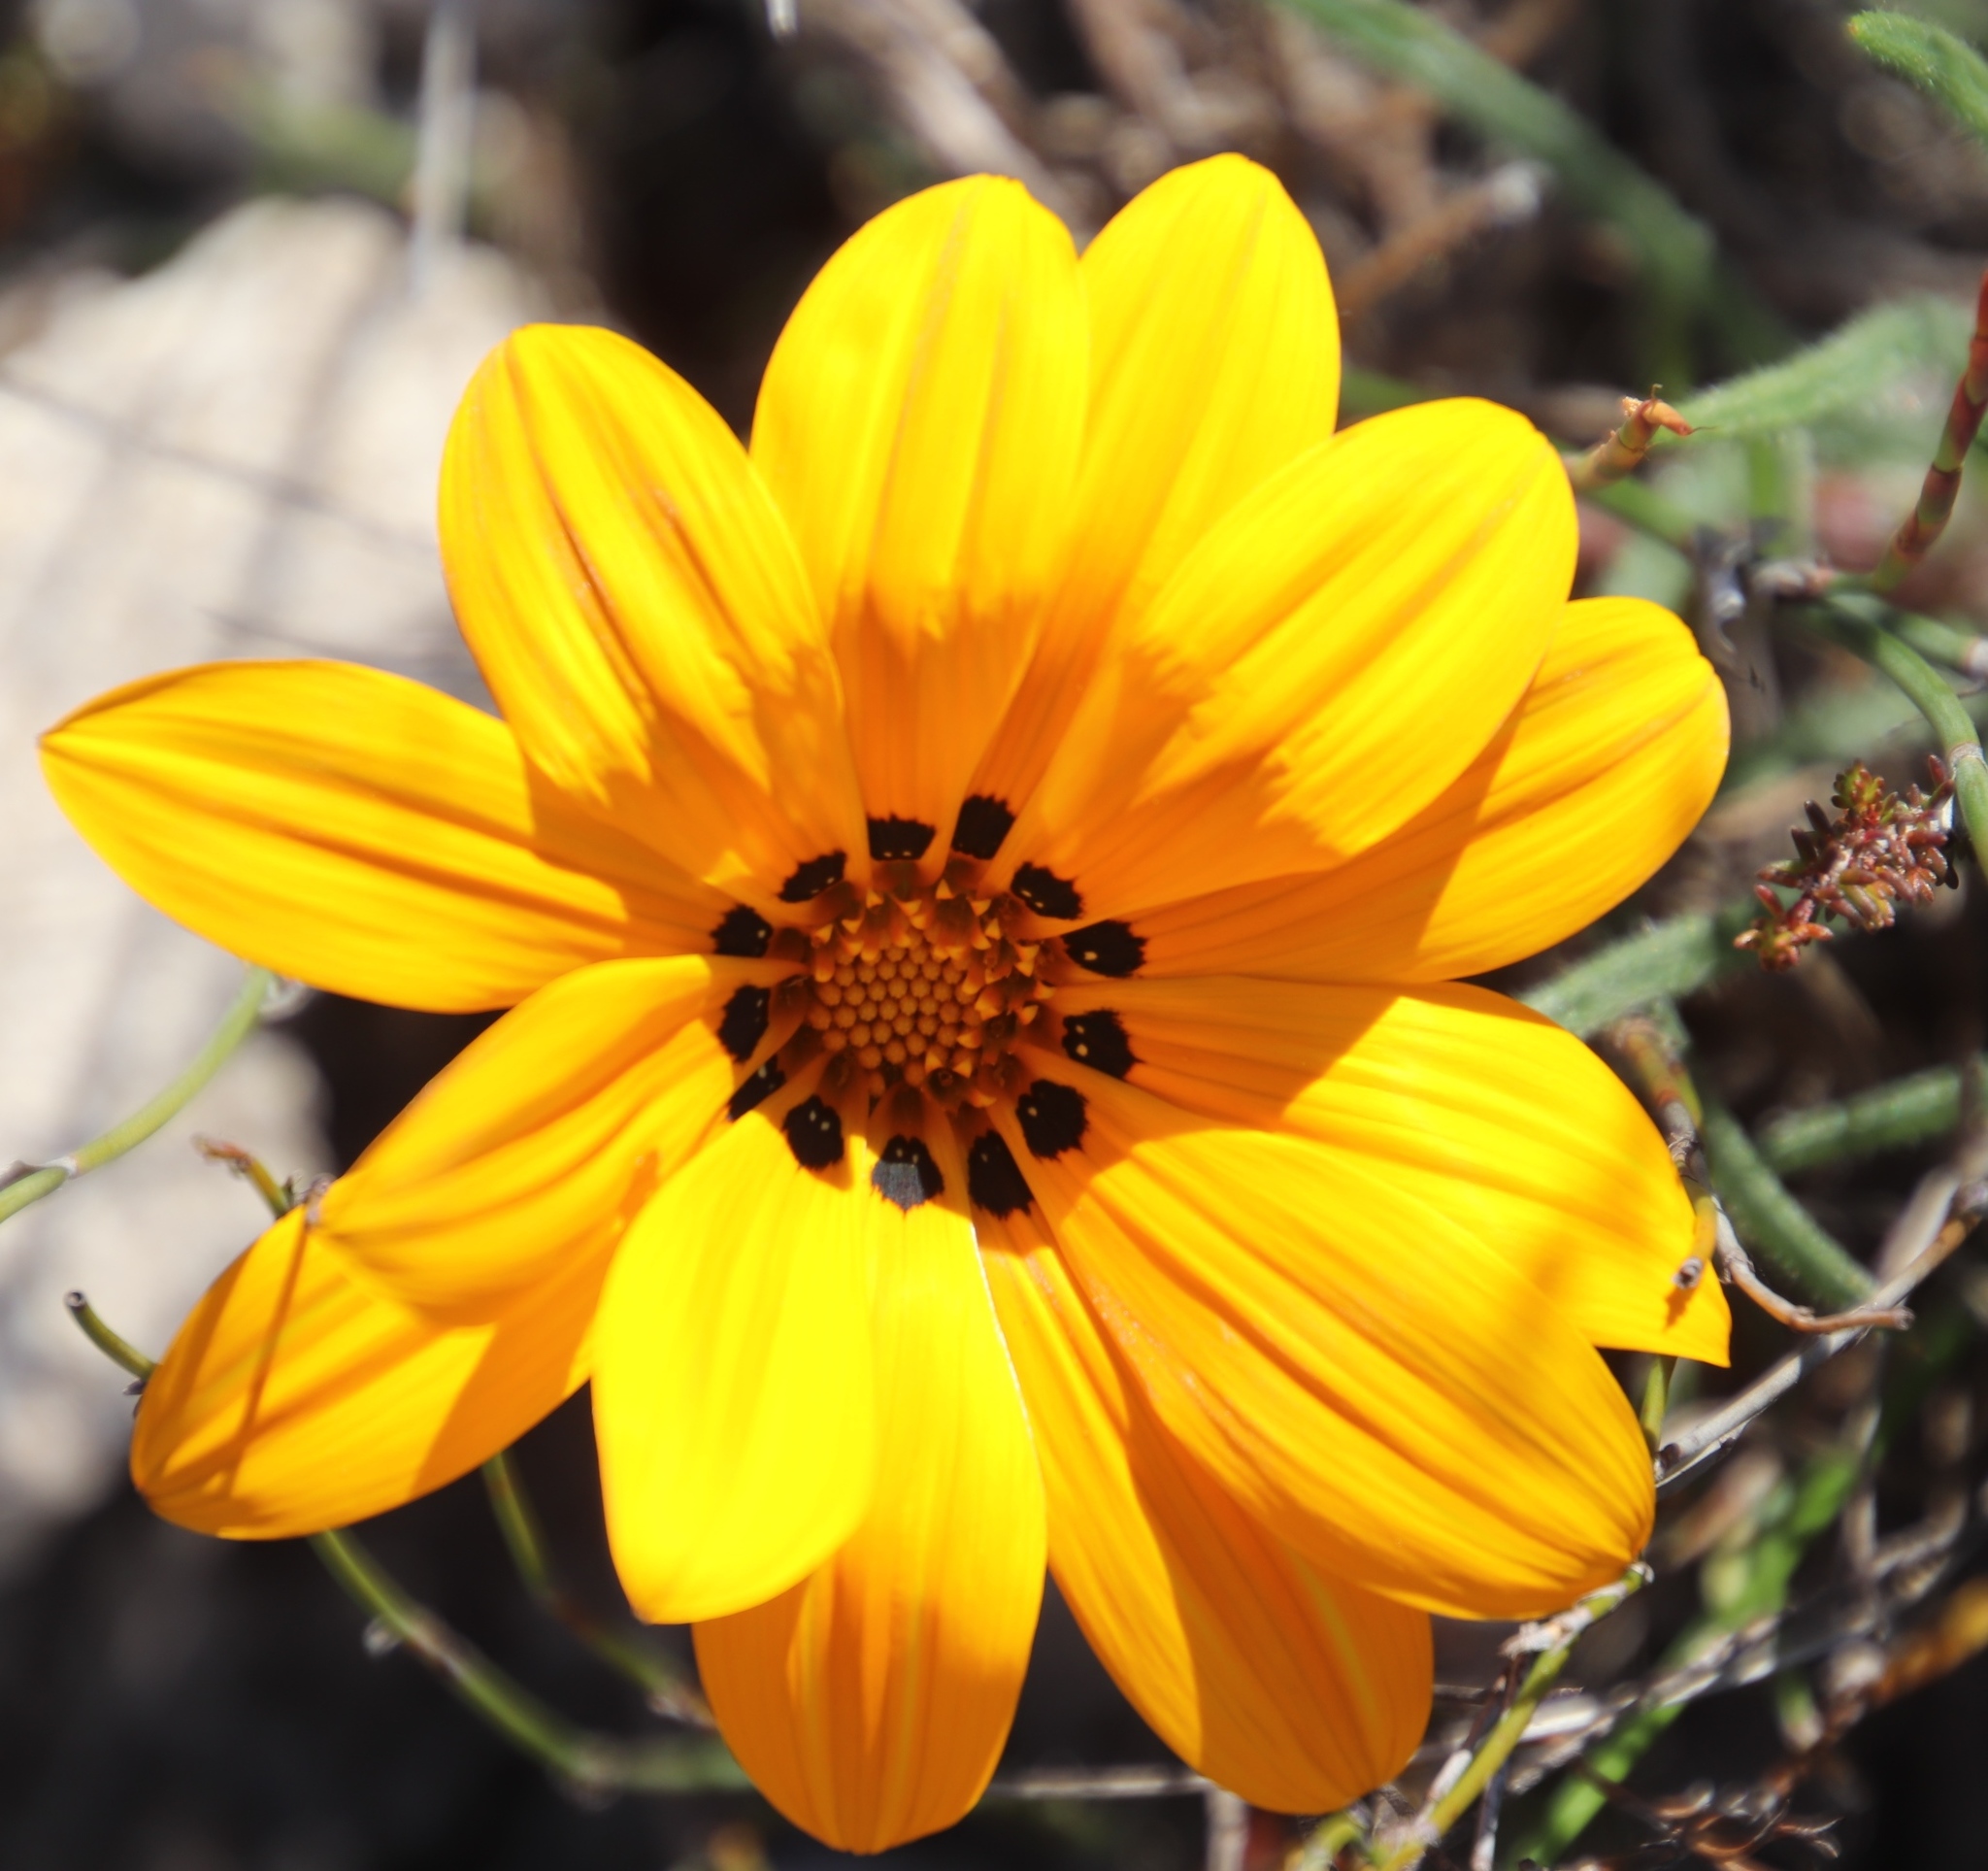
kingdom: Plantae
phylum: Tracheophyta
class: Magnoliopsida
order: Asterales
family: Asteraceae
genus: Gazania
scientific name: Gazania ciliaris
